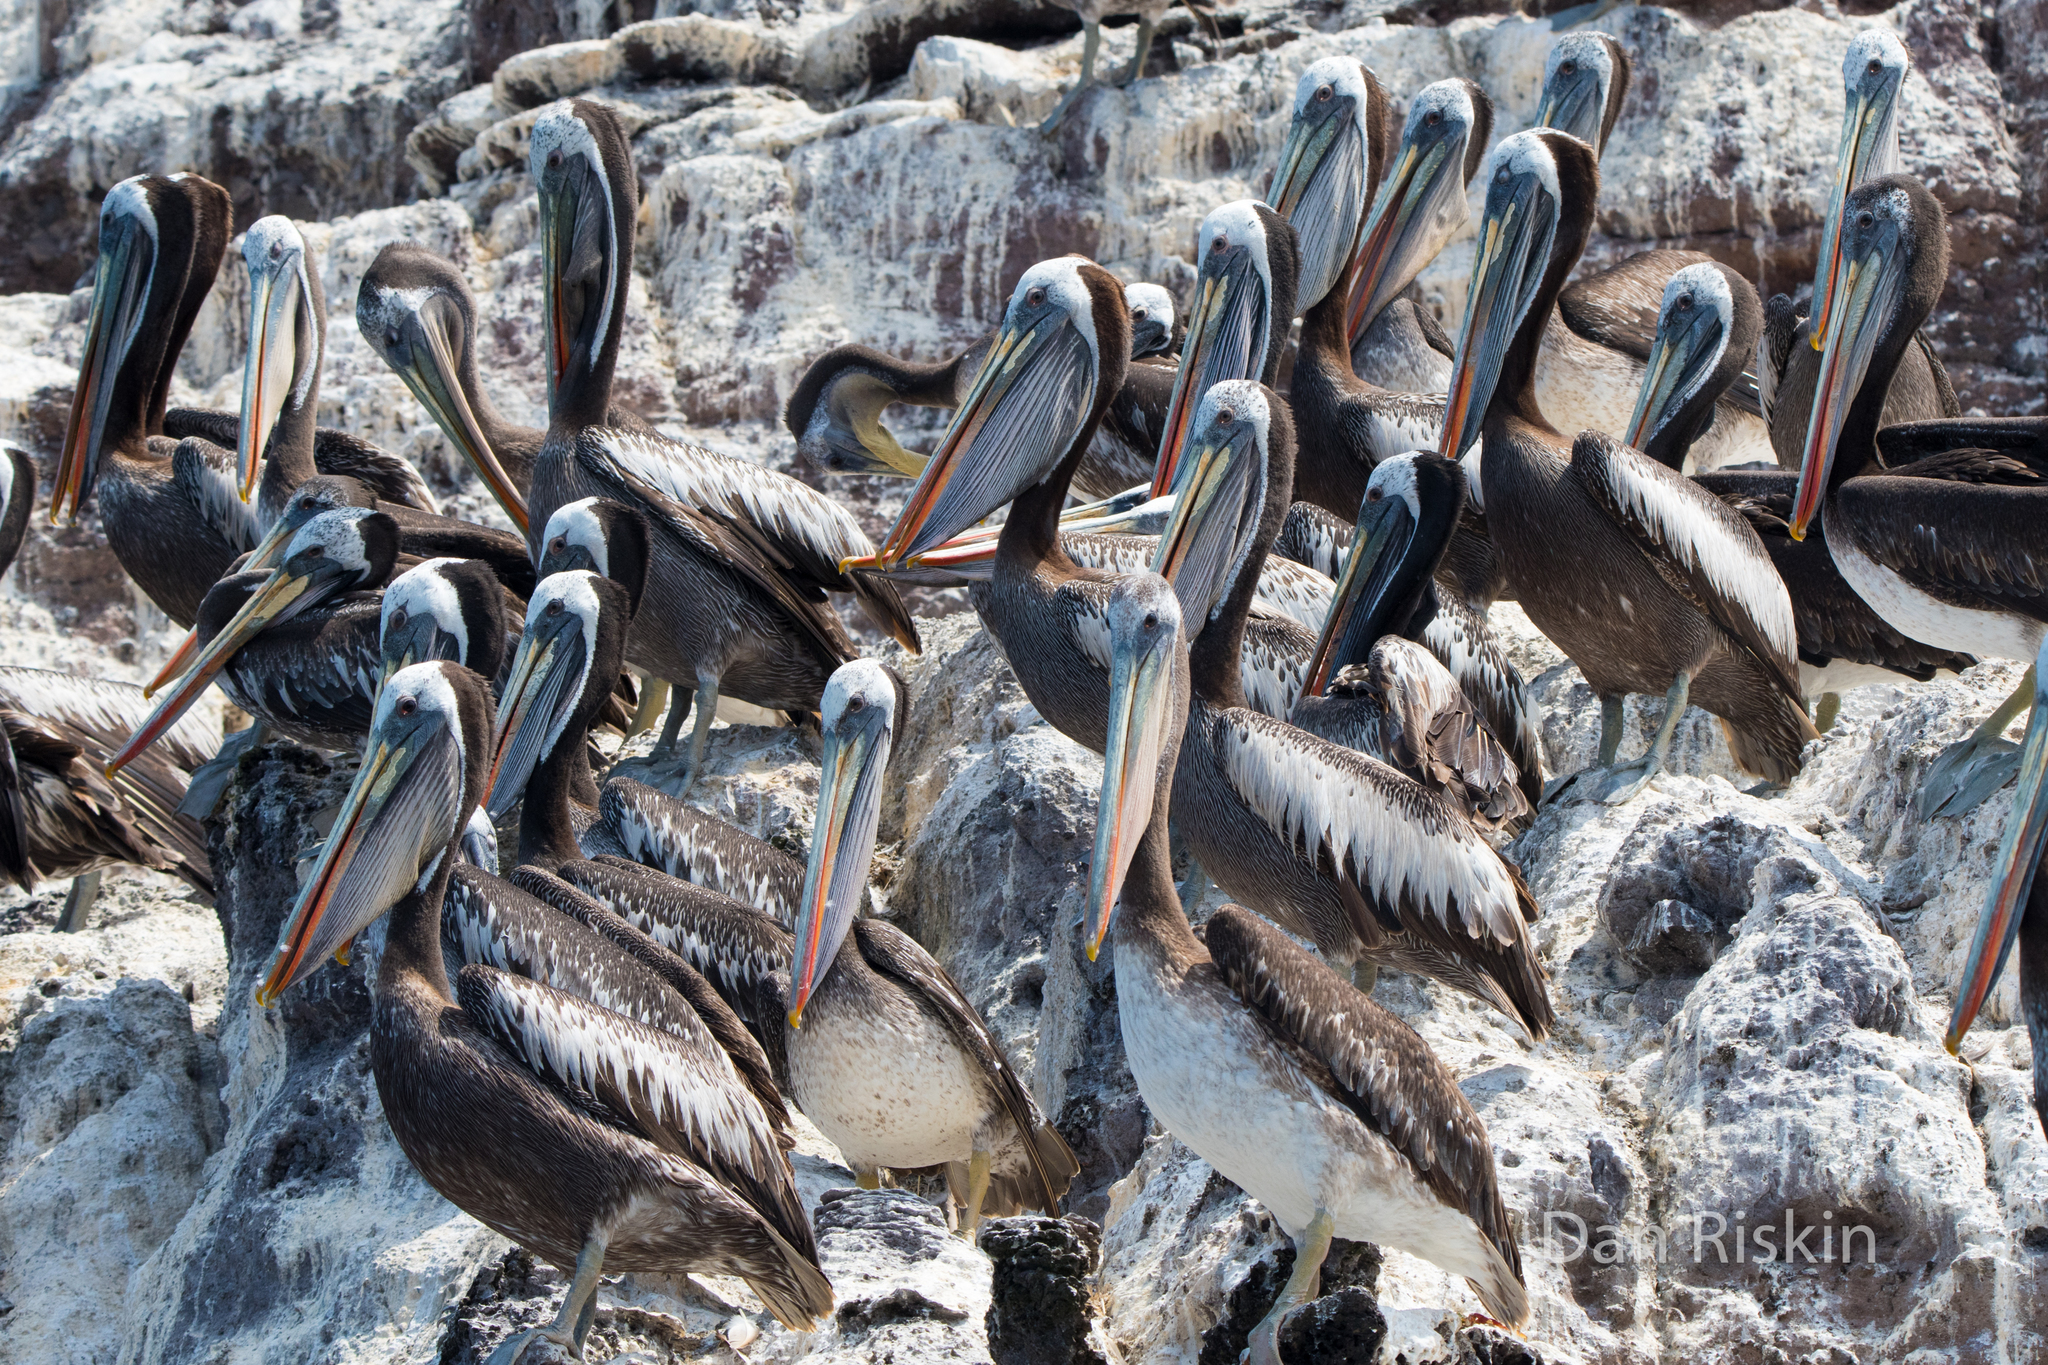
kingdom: Animalia
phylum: Chordata
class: Aves
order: Pelecaniformes
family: Pelecanidae
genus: Pelecanus
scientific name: Pelecanus thagus
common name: Peruvian pelican
